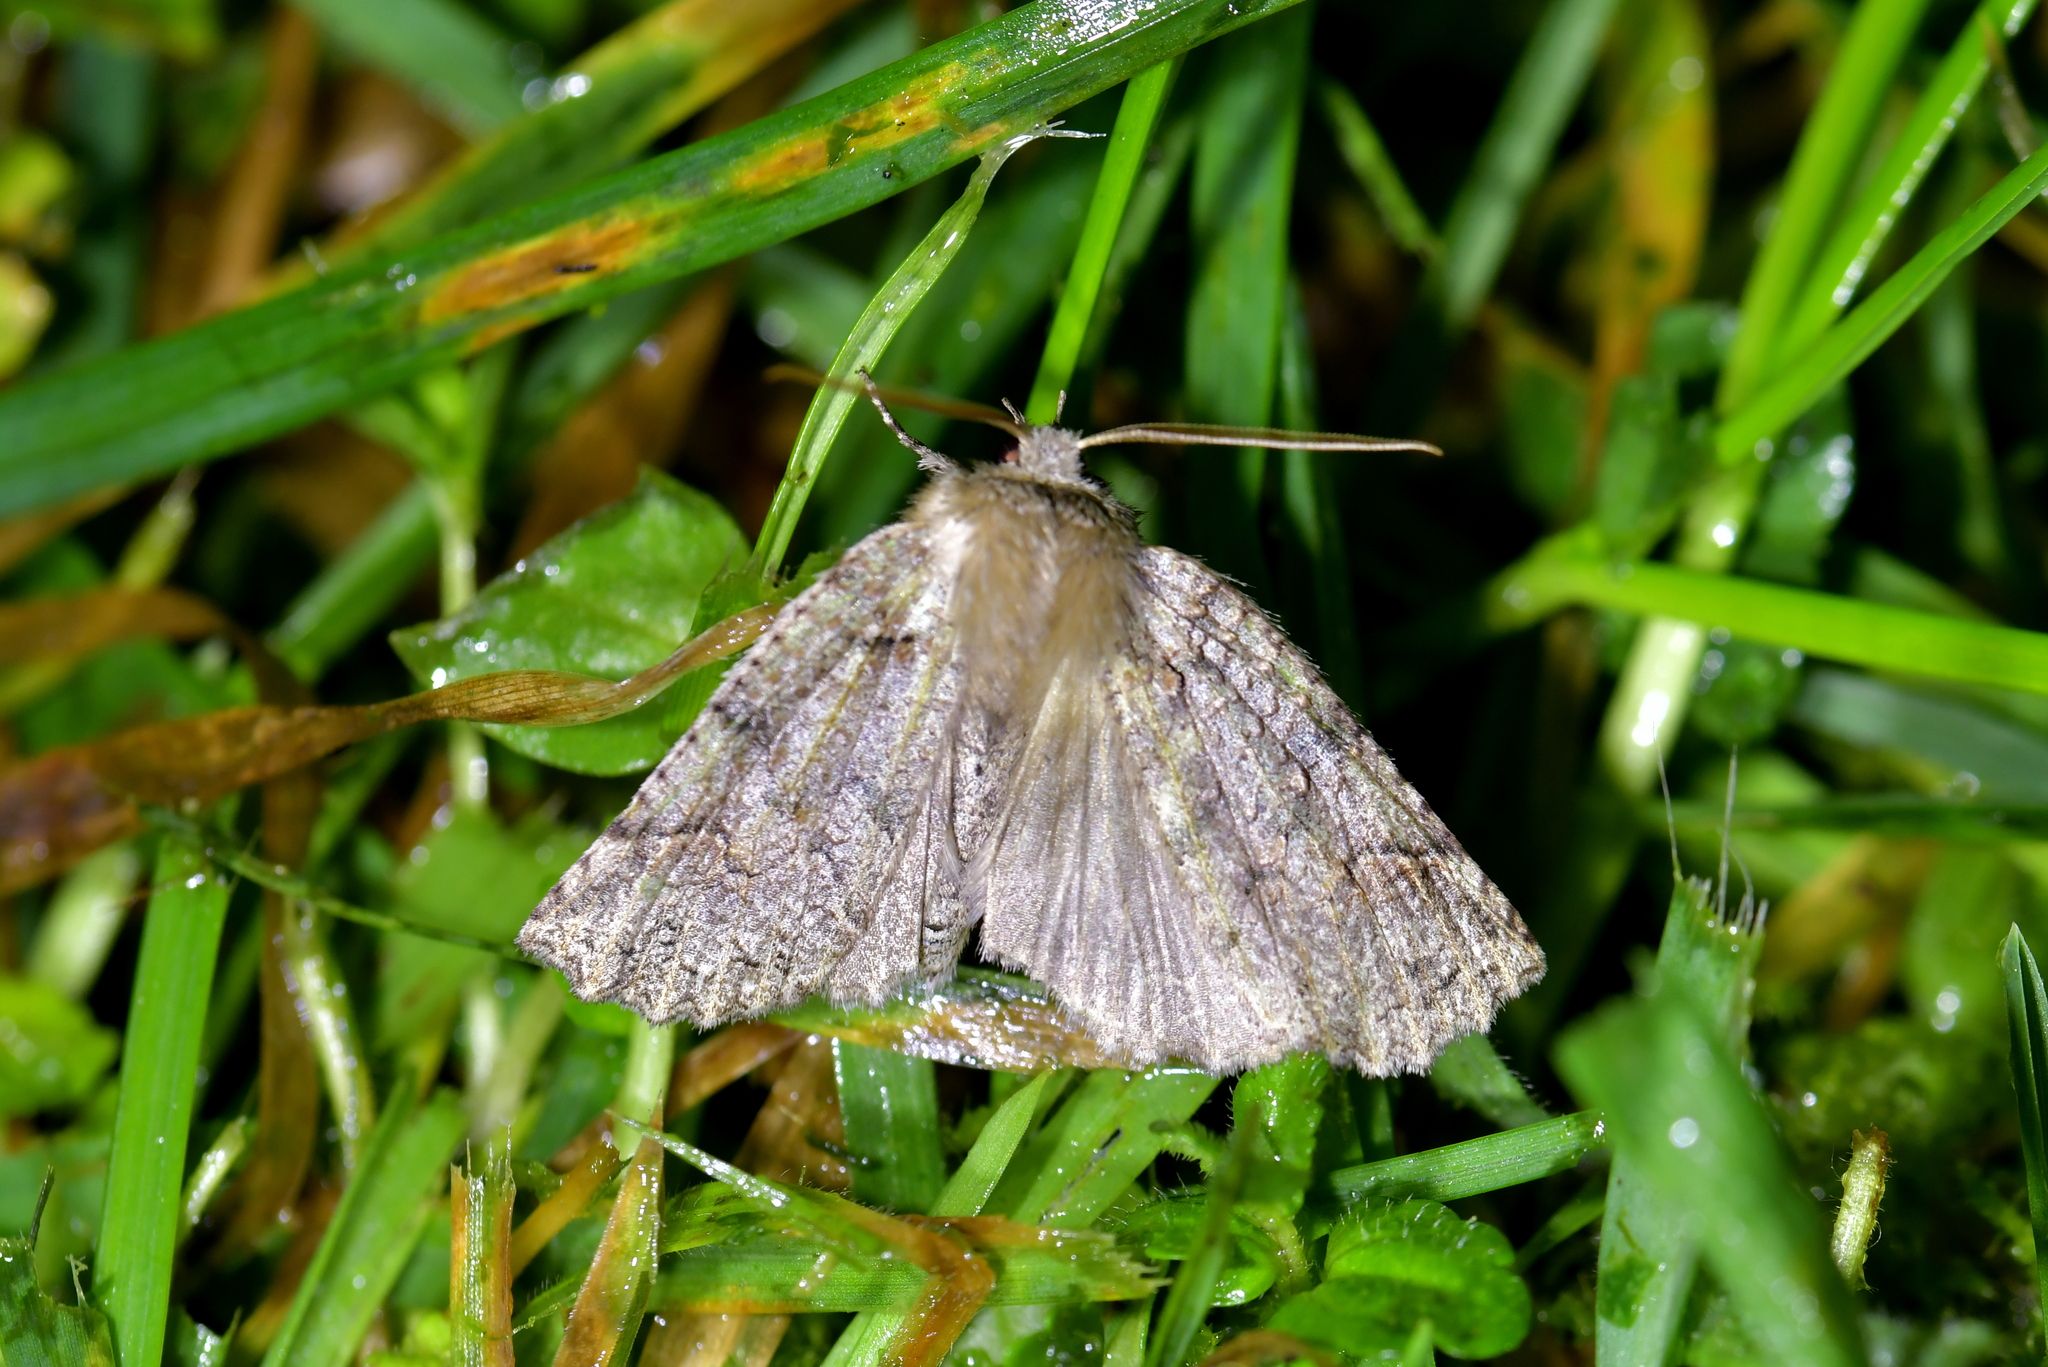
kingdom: Animalia
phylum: Arthropoda
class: Insecta
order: Lepidoptera
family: Geometridae
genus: Declana
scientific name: Declana floccosa
